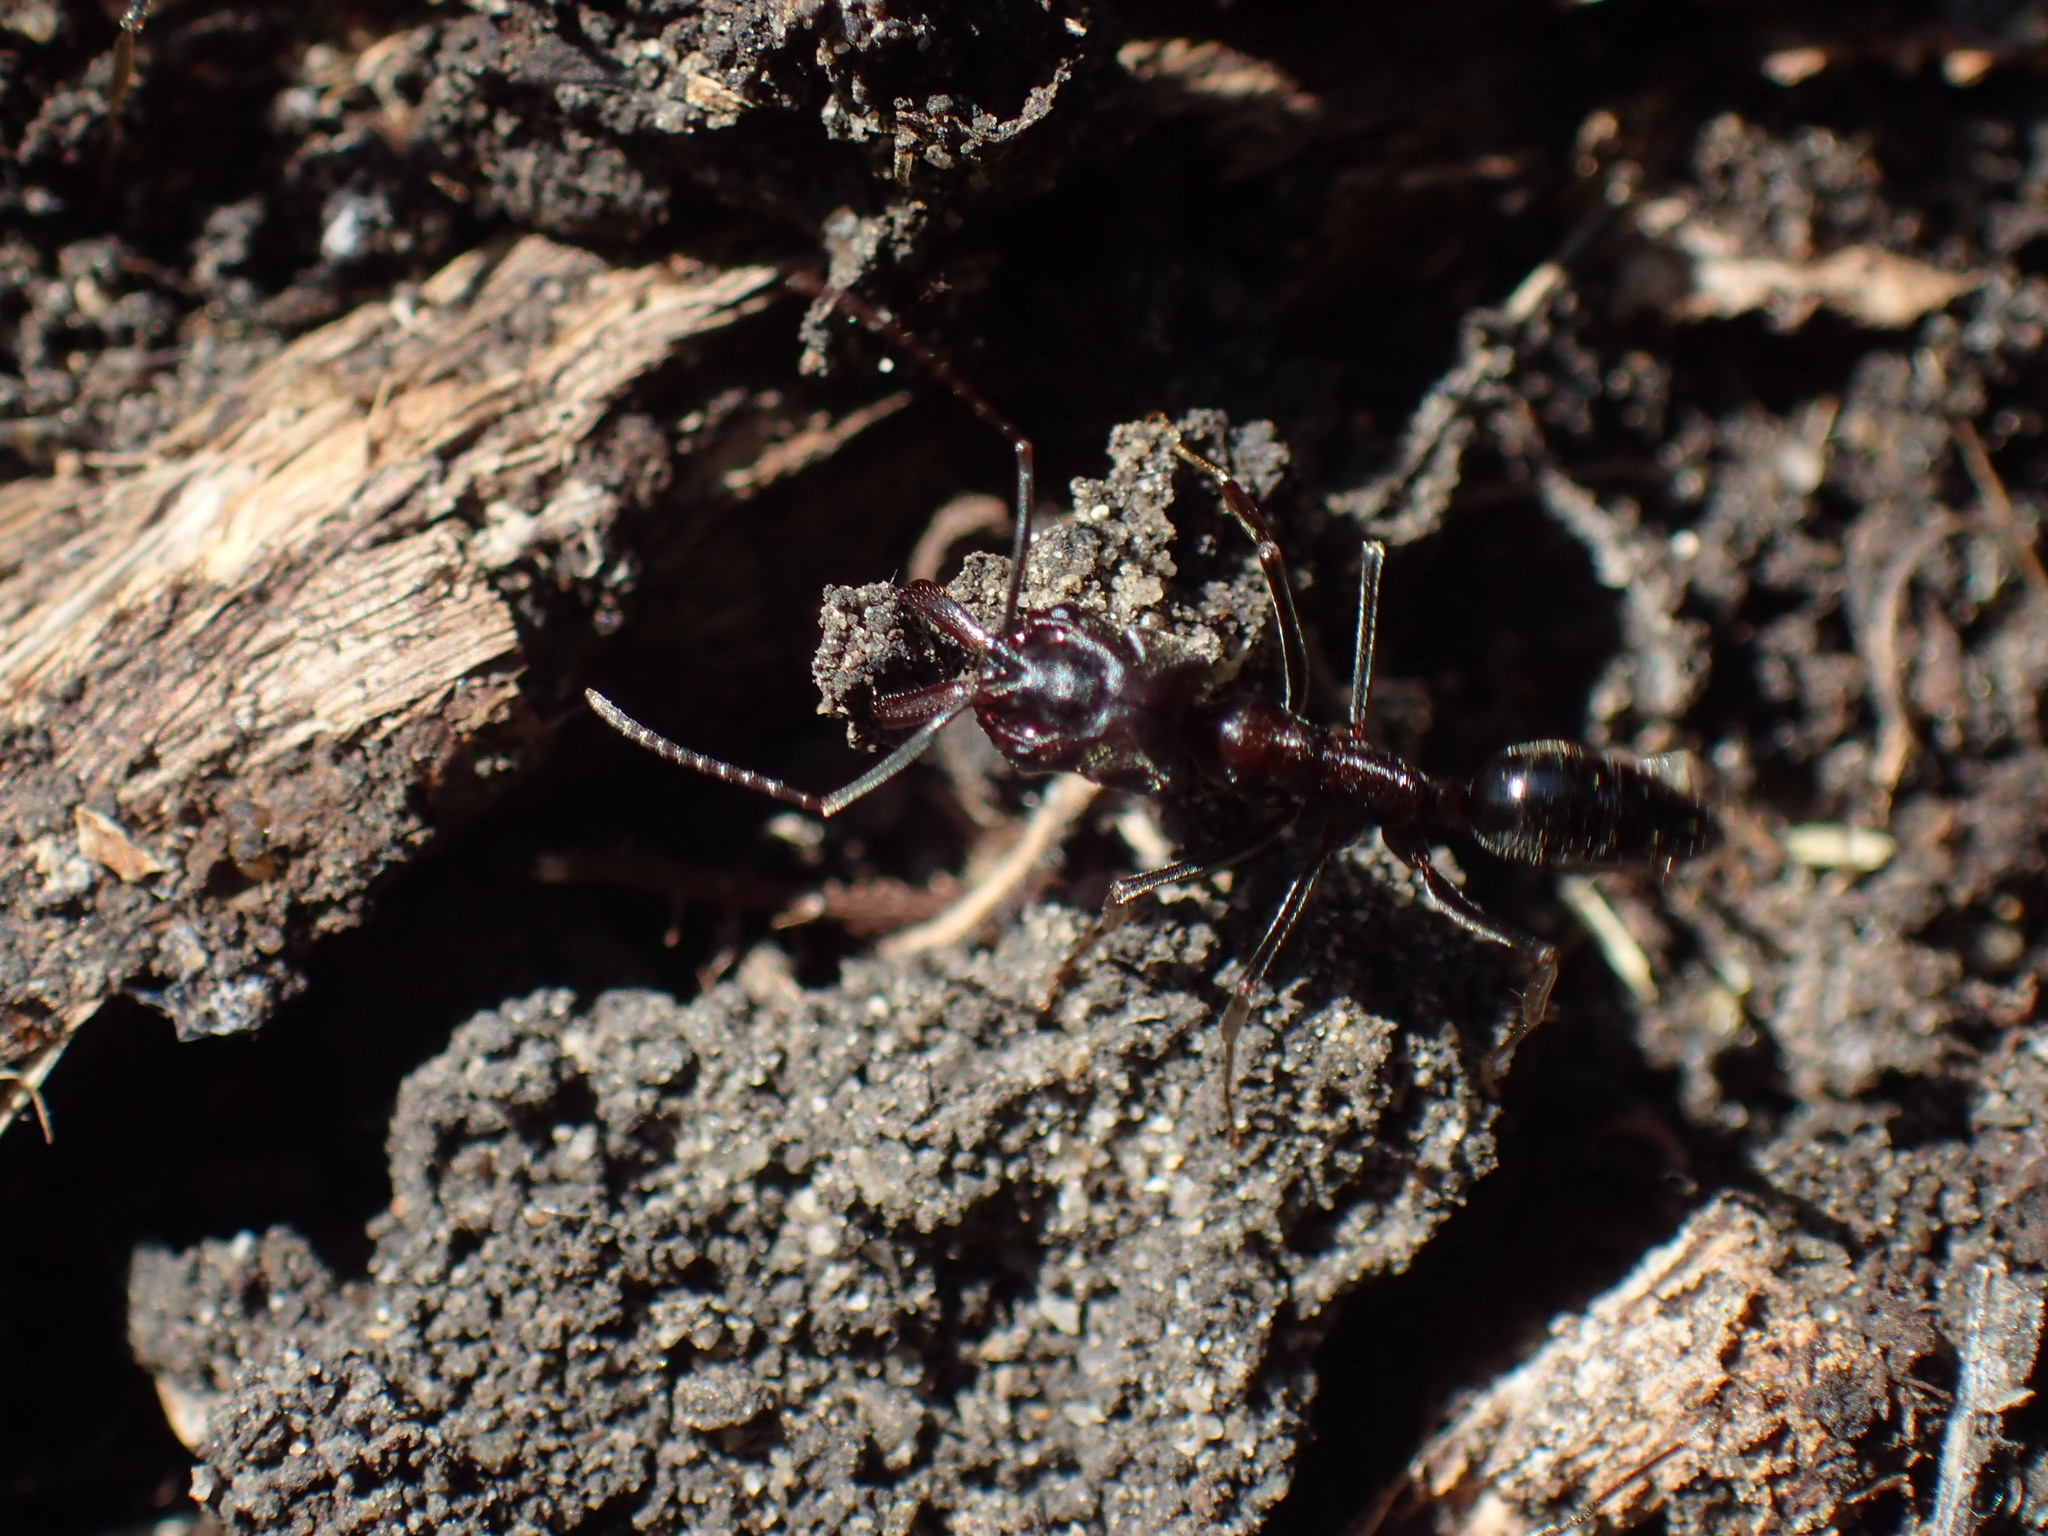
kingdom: Animalia
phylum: Arthropoda
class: Insecta
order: Hymenoptera
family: Formicidae
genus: Odontomachus
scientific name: Odontomachus troglodytes
